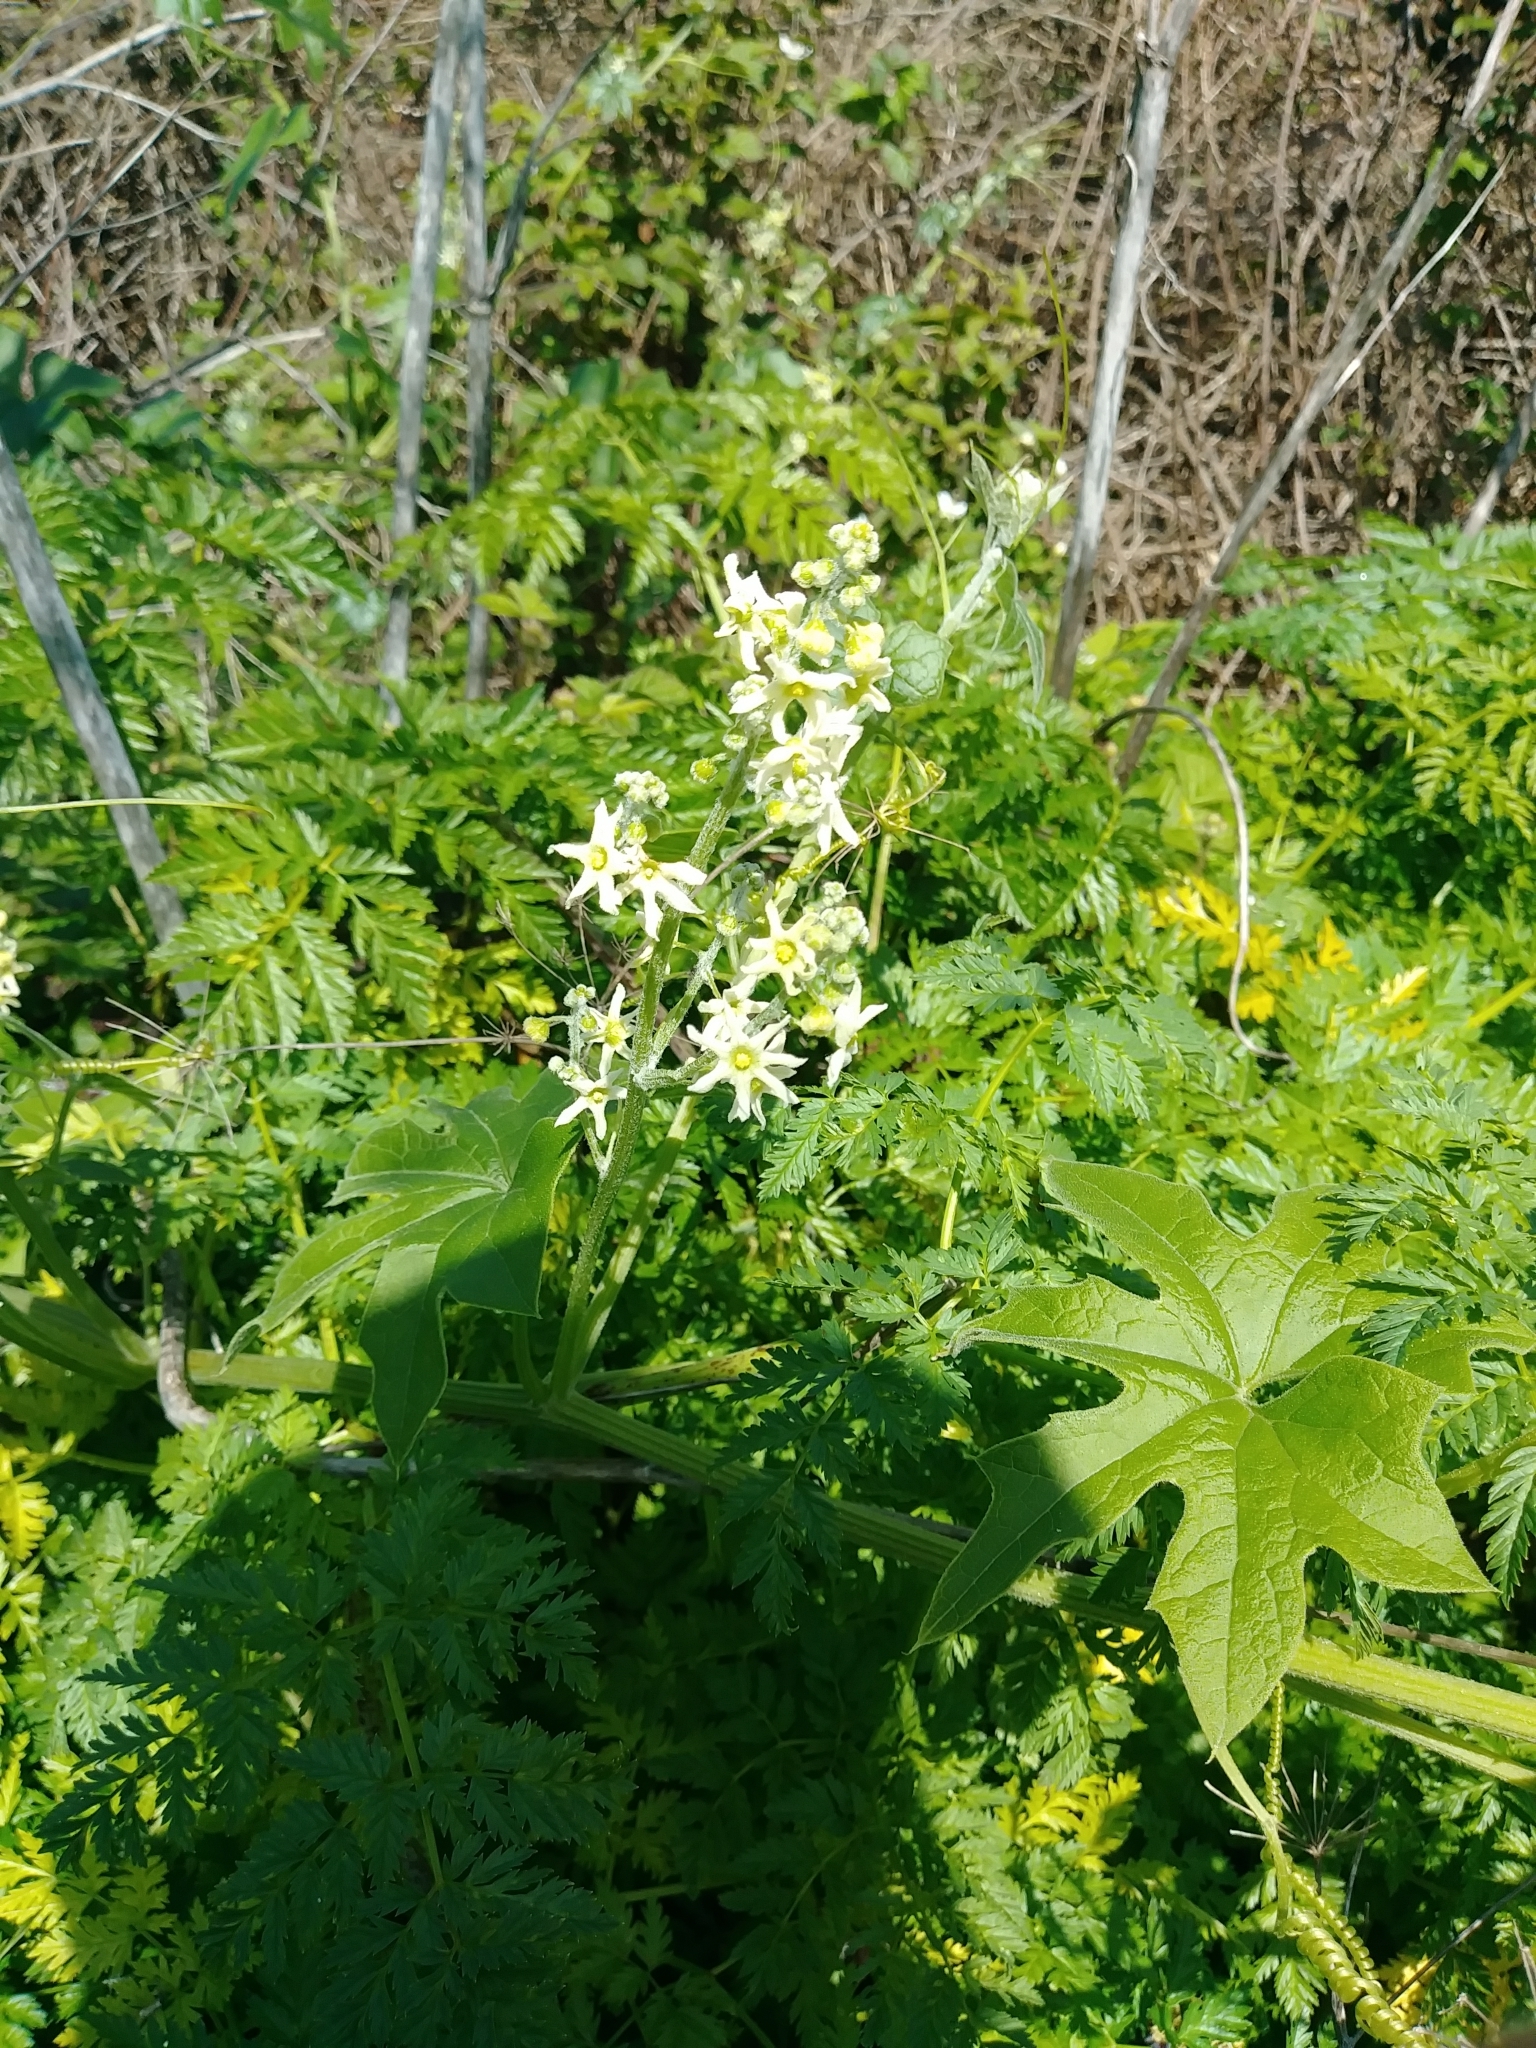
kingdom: Plantae
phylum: Tracheophyta
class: Magnoliopsida
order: Cucurbitales
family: Cucurbitaceae
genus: Marah
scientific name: Marah fabacea
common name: California manroot
